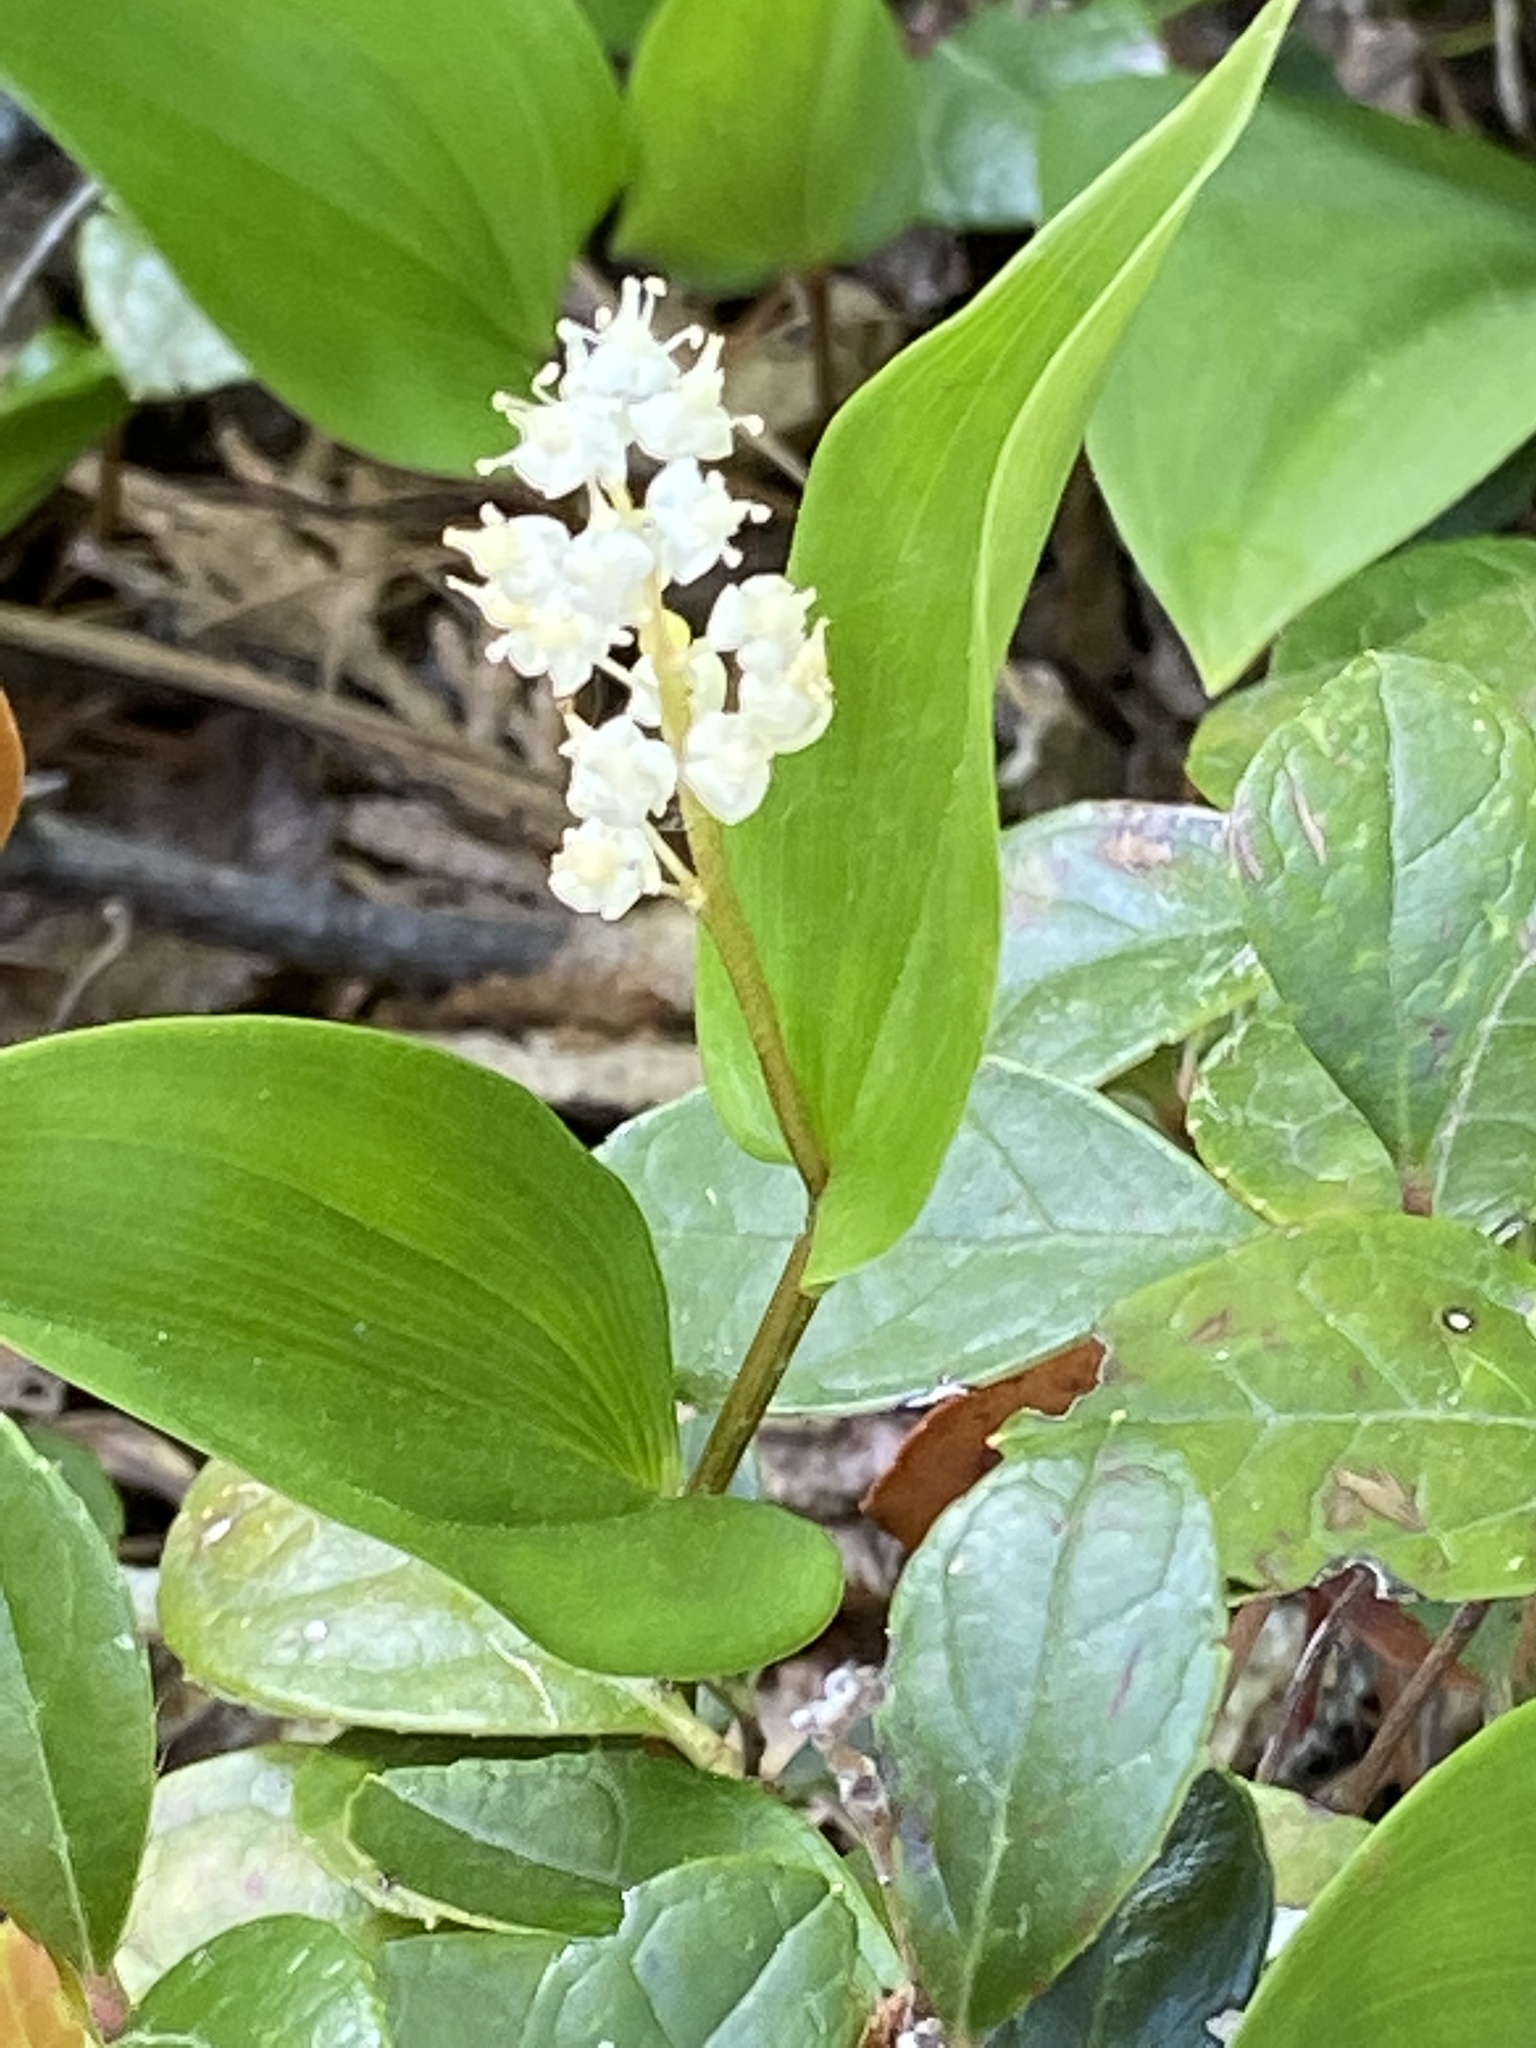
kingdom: Plantae
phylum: Tracheophyta
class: Liliopsida
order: Asparagales
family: Asparagaceae
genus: Maianthemum
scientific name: Maianthemum canadense
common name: False lily-of-the-valley
